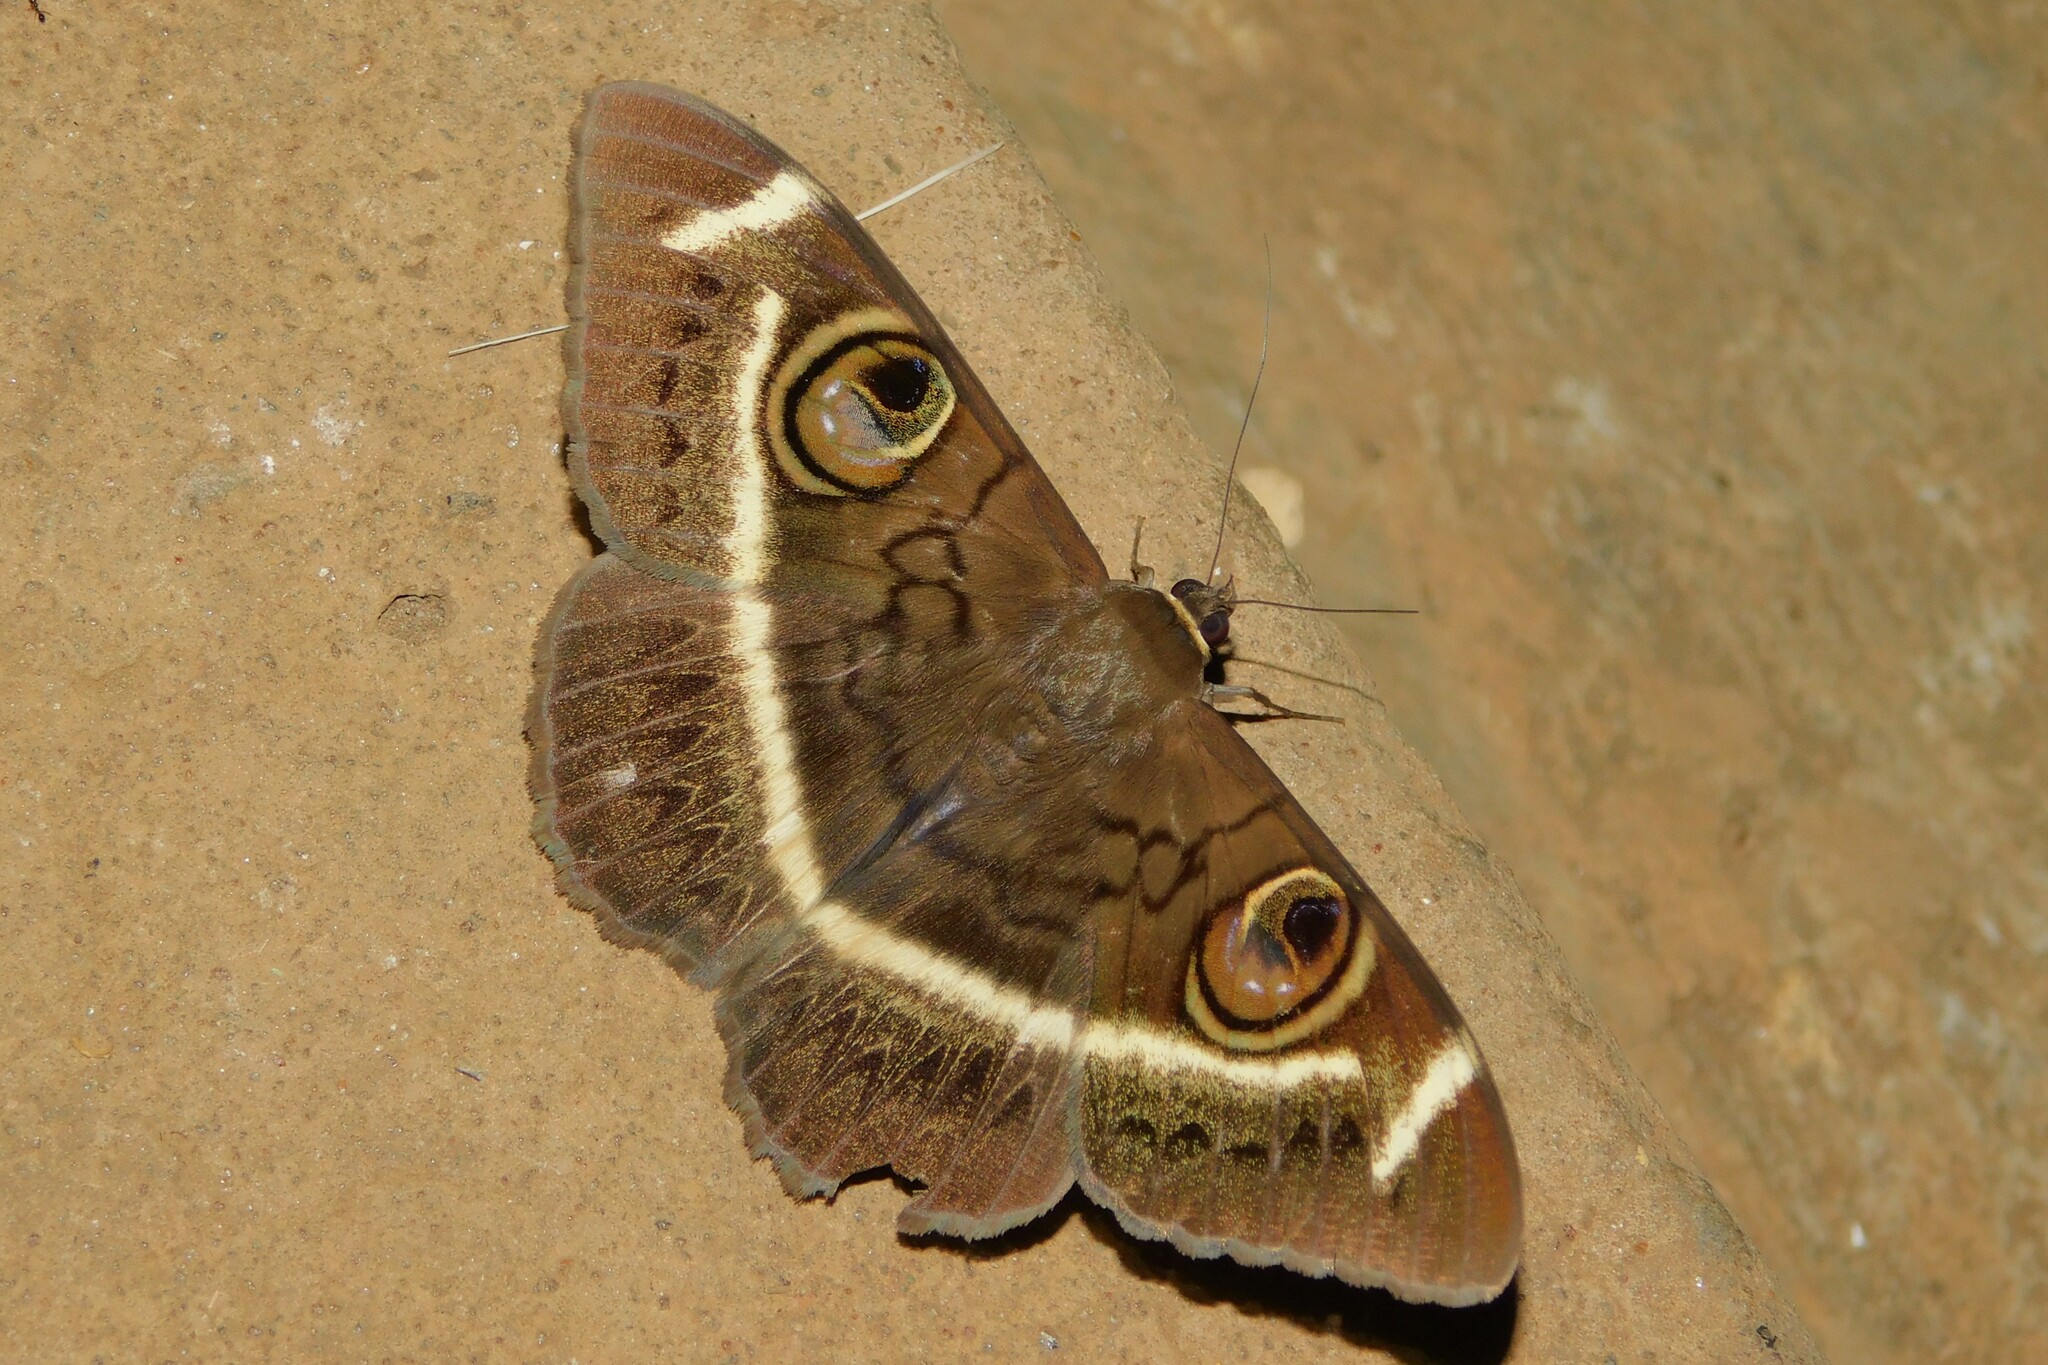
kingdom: Animalia
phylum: Arthropoda
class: Insecta
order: Lepidoptera
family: Erebidae
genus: Cyligramma
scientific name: Cyligramma latona
